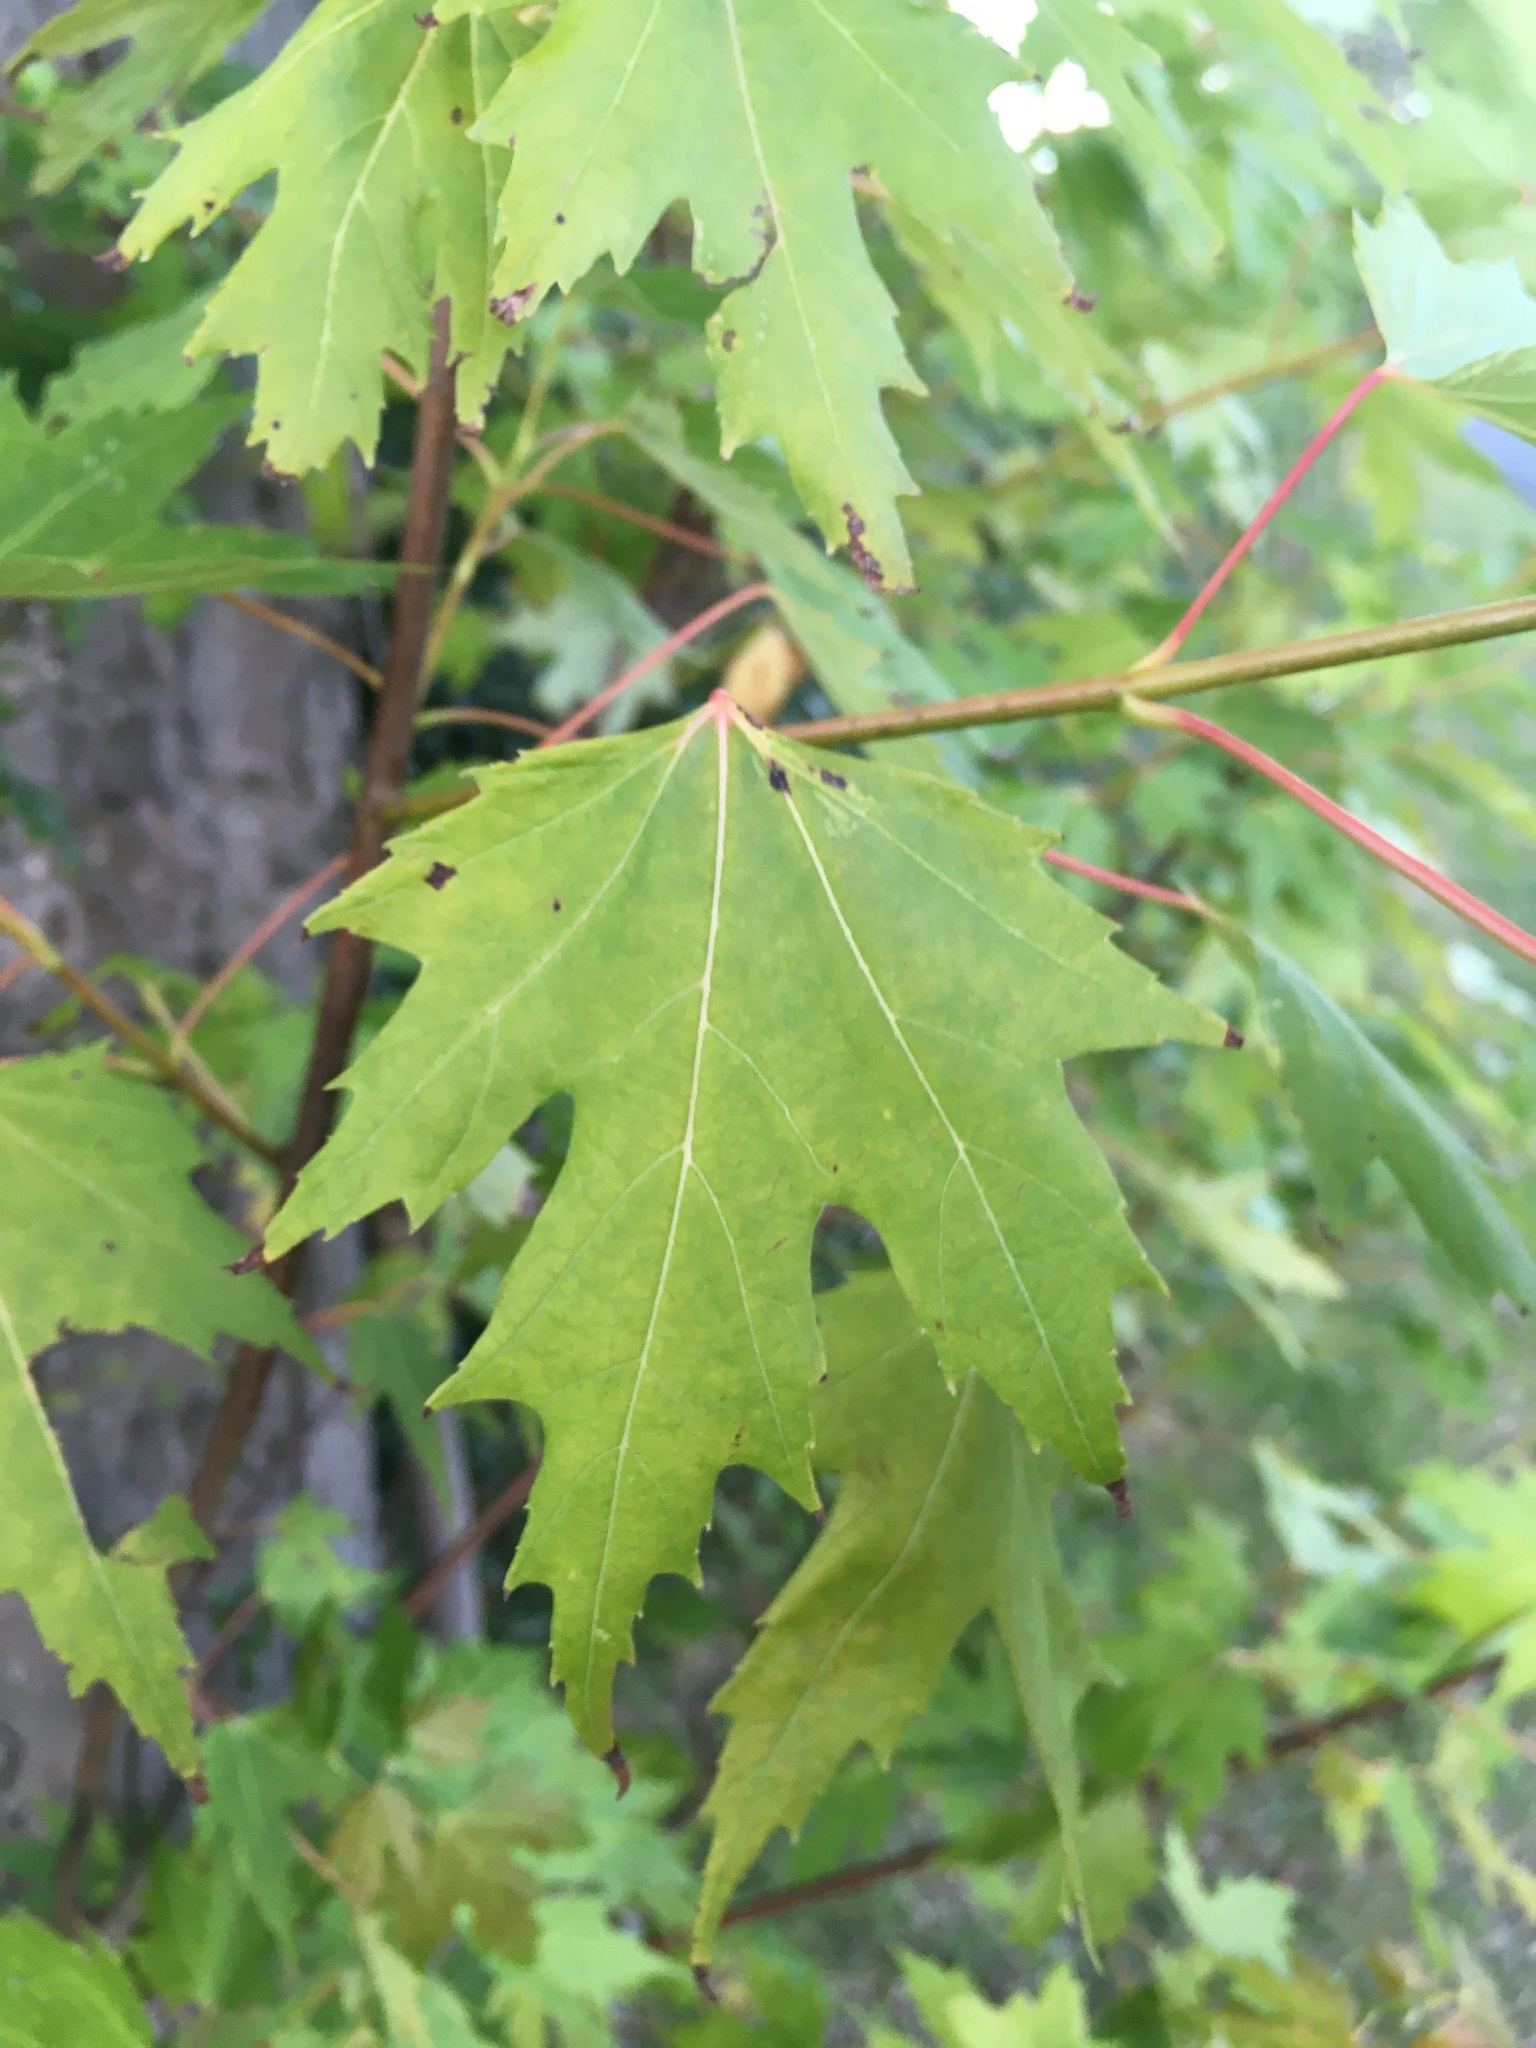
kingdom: Plantae
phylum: Tracheophyta
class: Magnoliopsida
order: Sapindales
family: Sapindaceae
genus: Acer
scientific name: Acer saccharinum
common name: Silver maple
